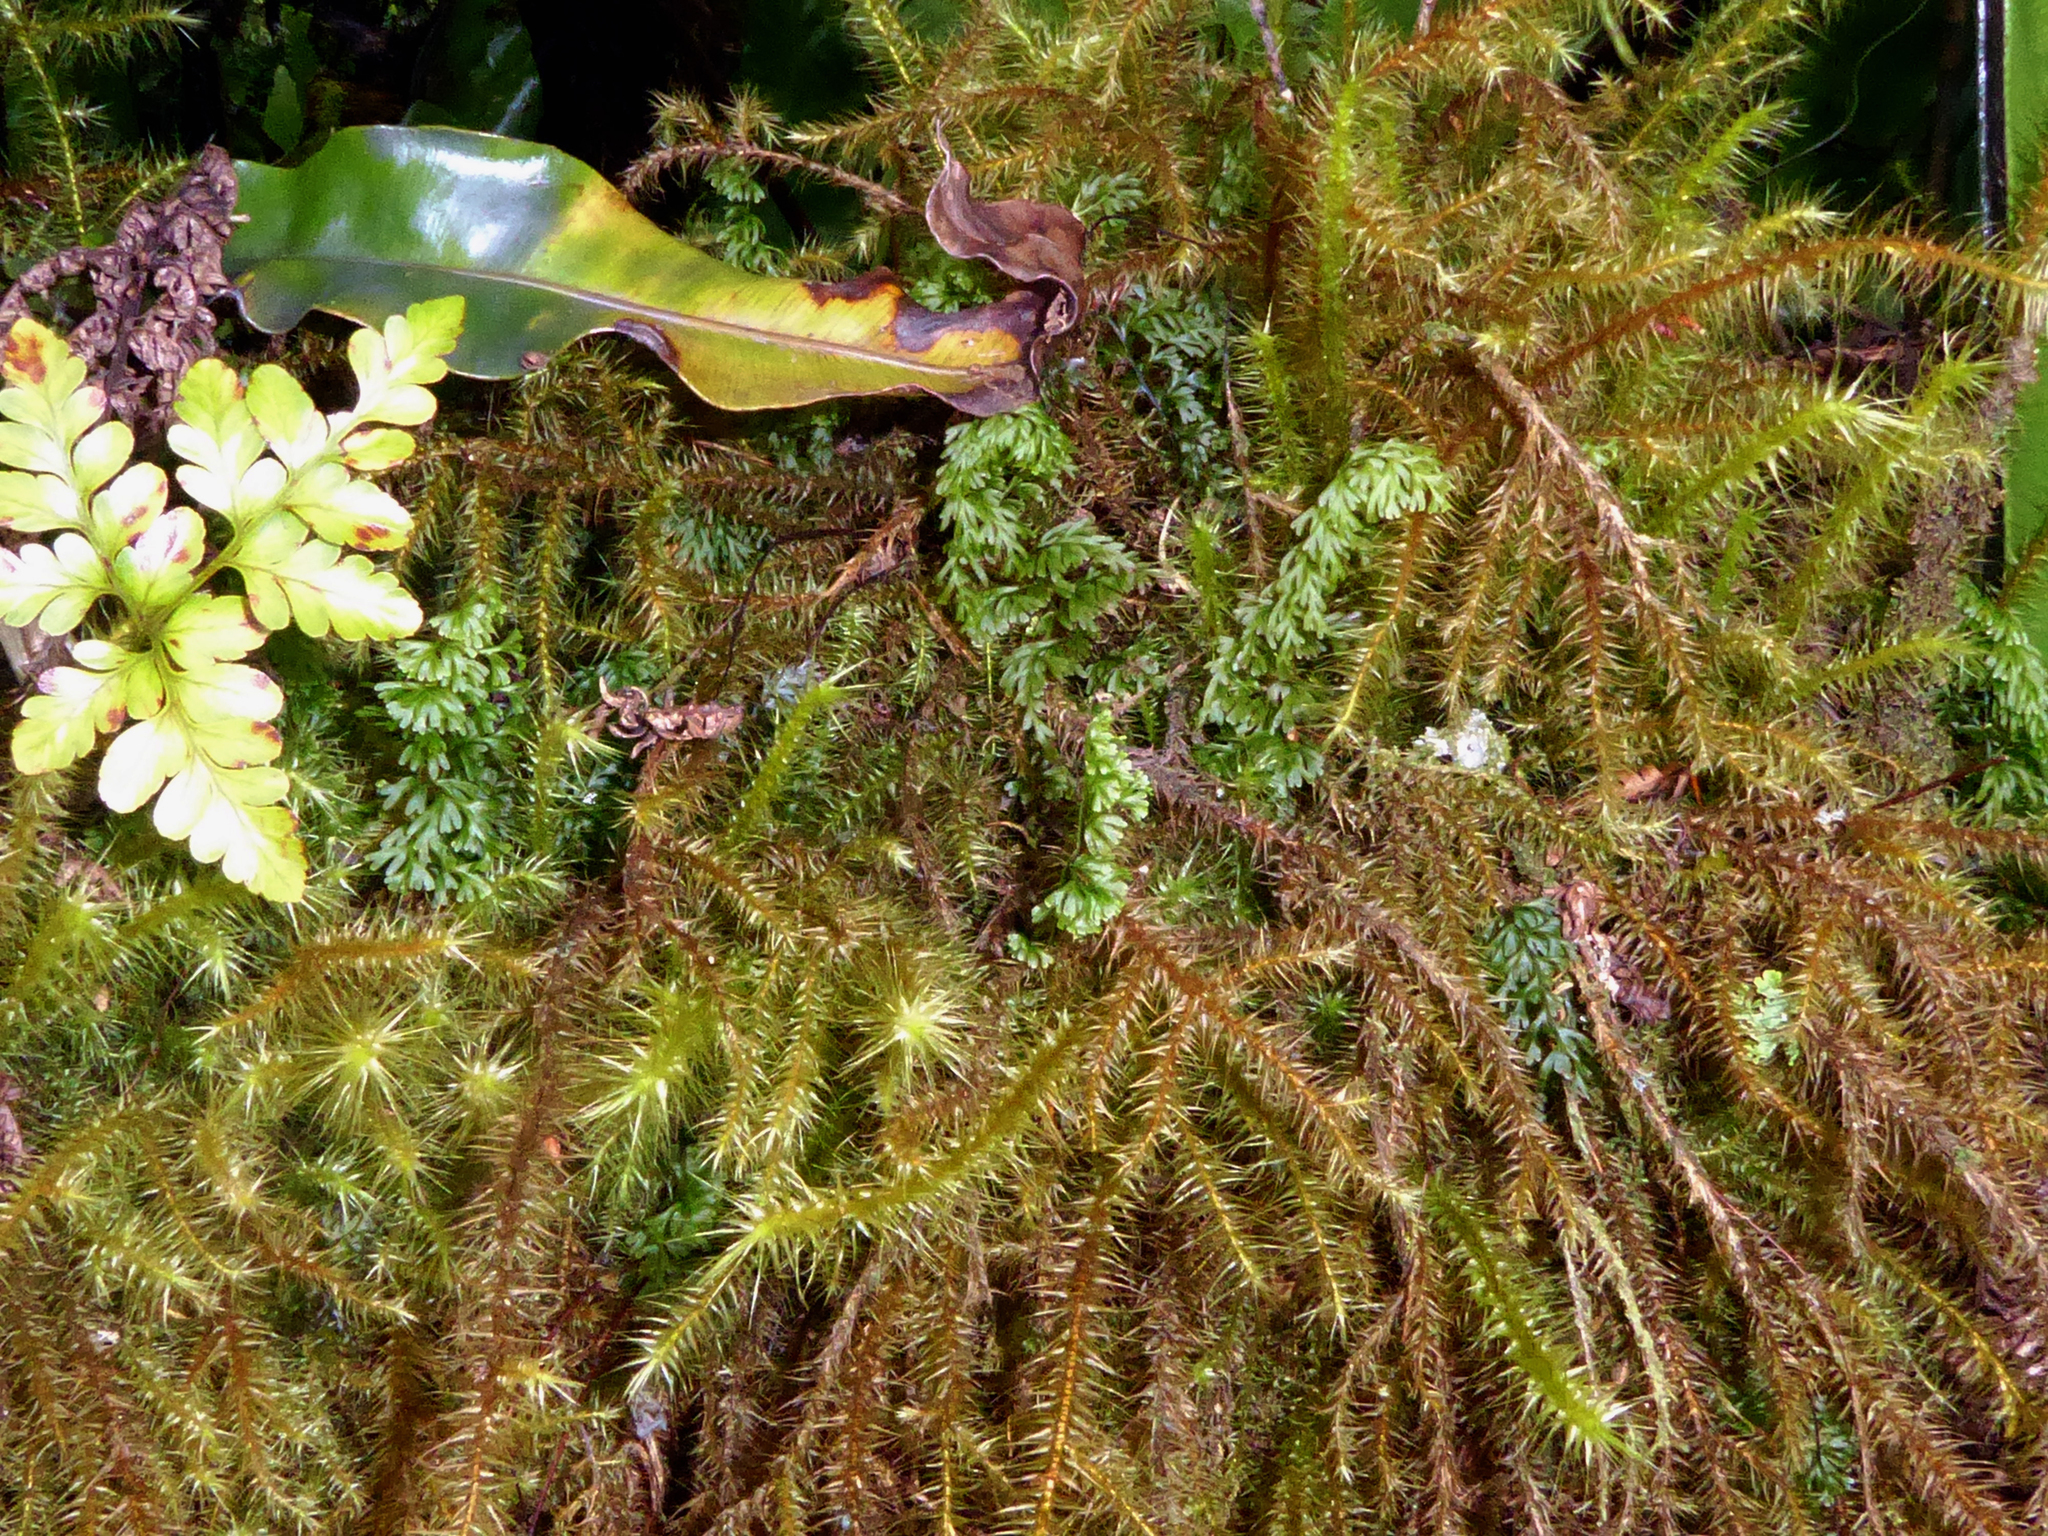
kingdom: Plantae
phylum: Bryophyta
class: Bryopsida
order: Hypnodendrales
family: Spiridentaceae
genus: Spiridens
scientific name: Spiridens reinwardtii
